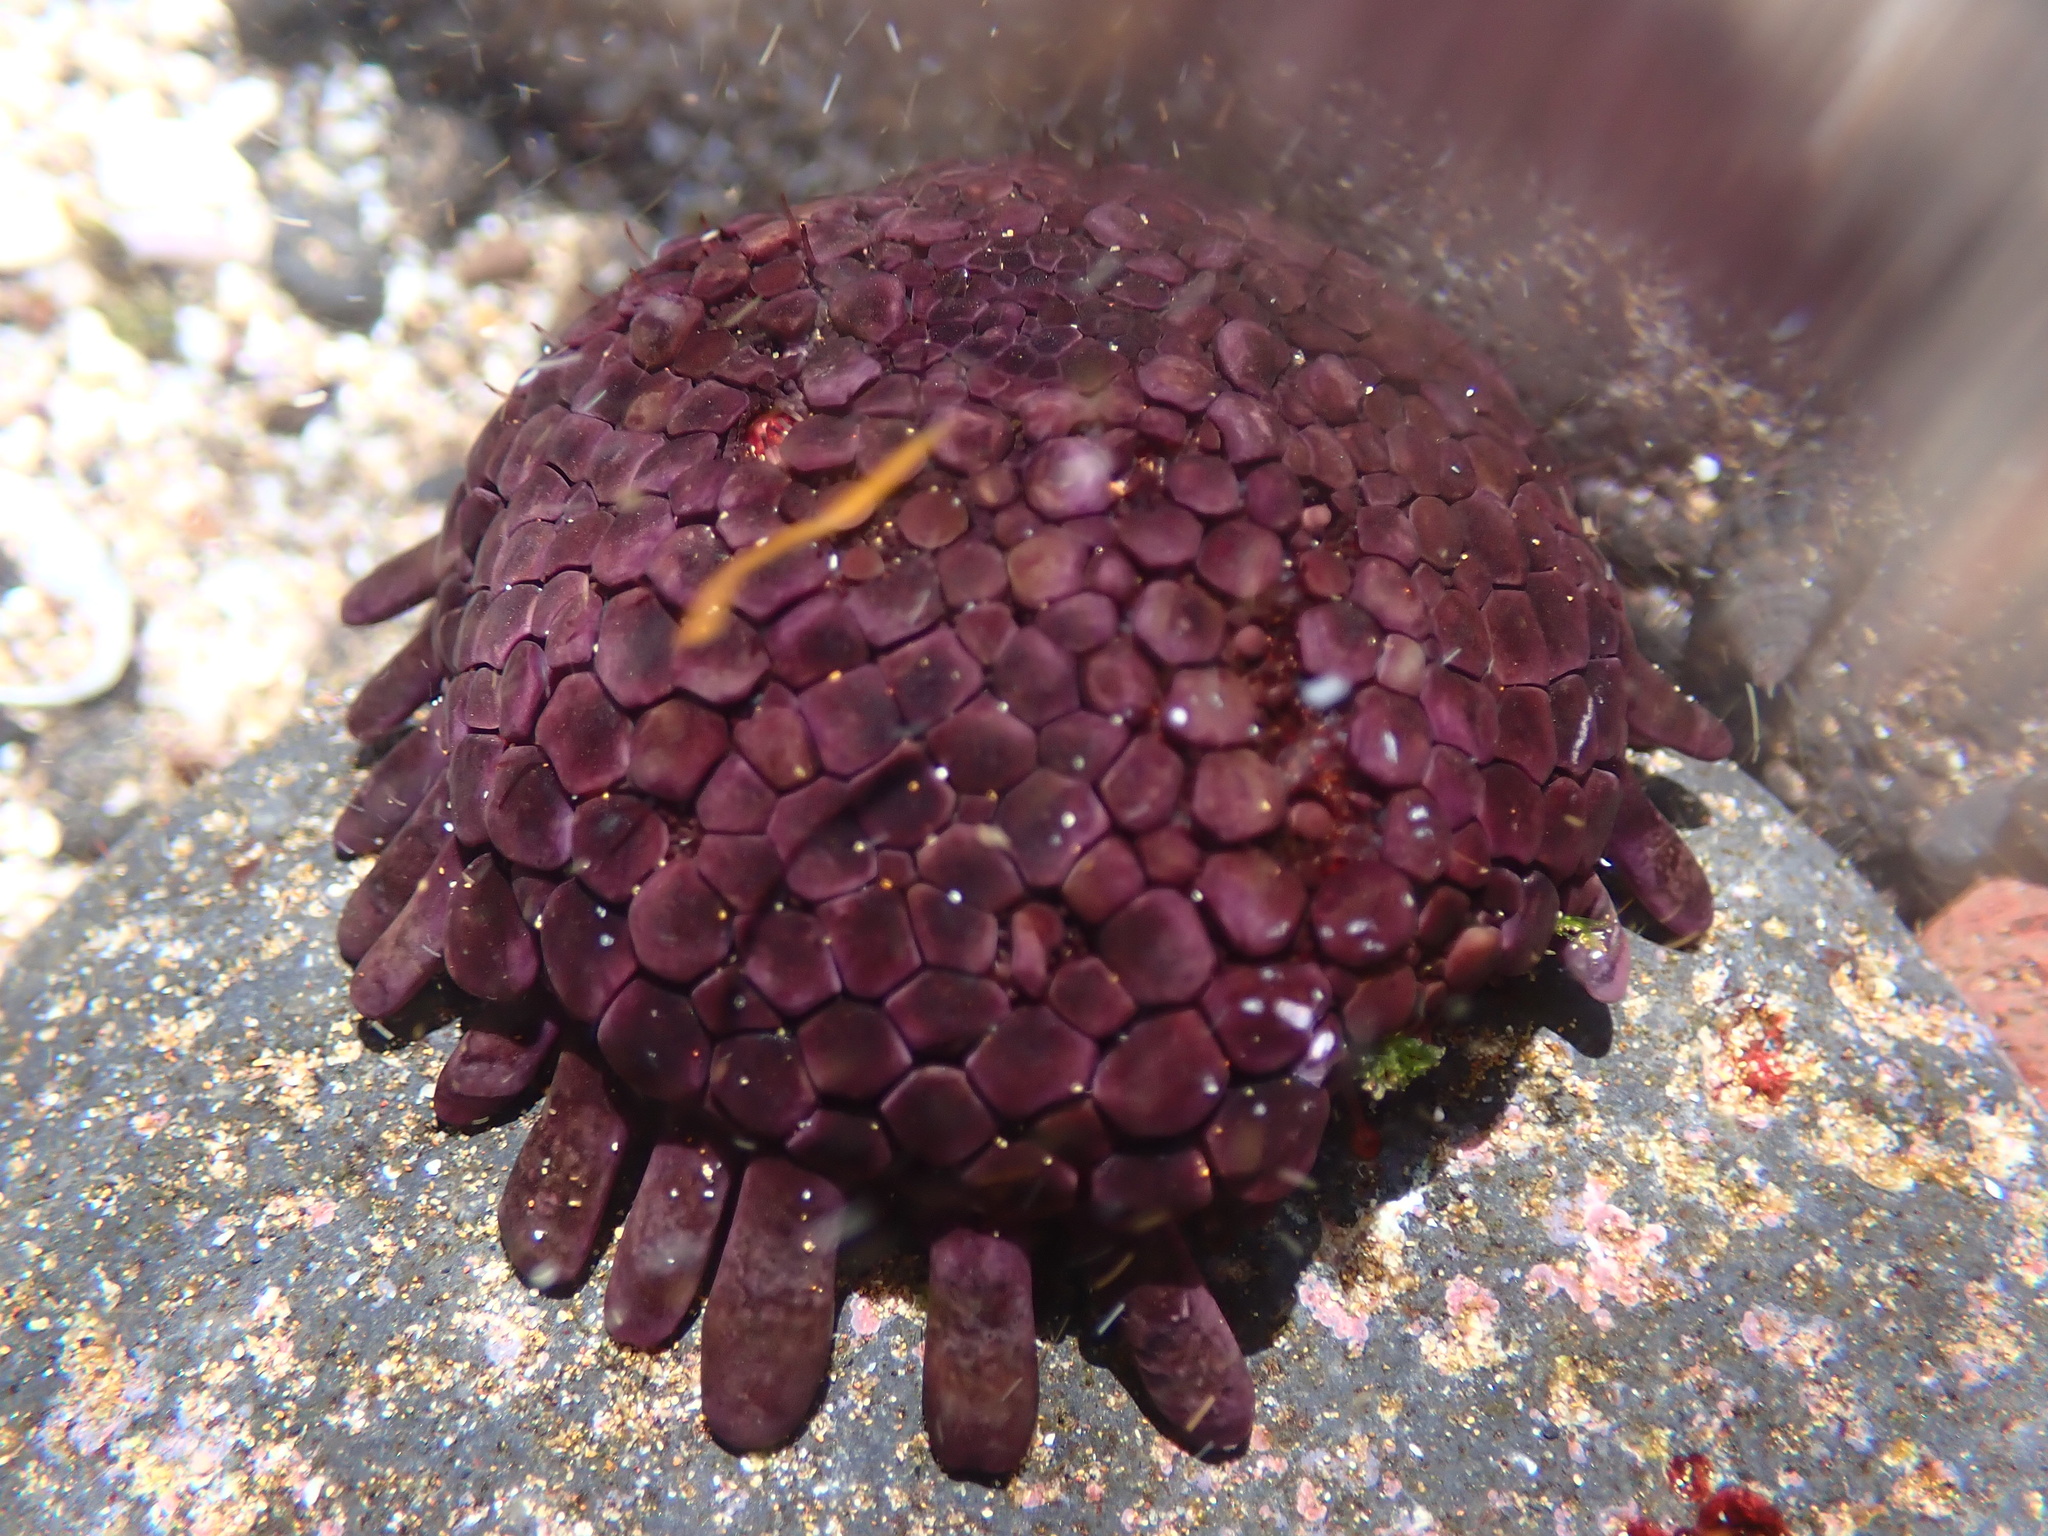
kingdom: Animalia
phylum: Echinodermata
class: Echinoidea
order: Camarodonta
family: Echinometridae
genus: Colobocentrotus
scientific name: Colobocentrotus atratus
